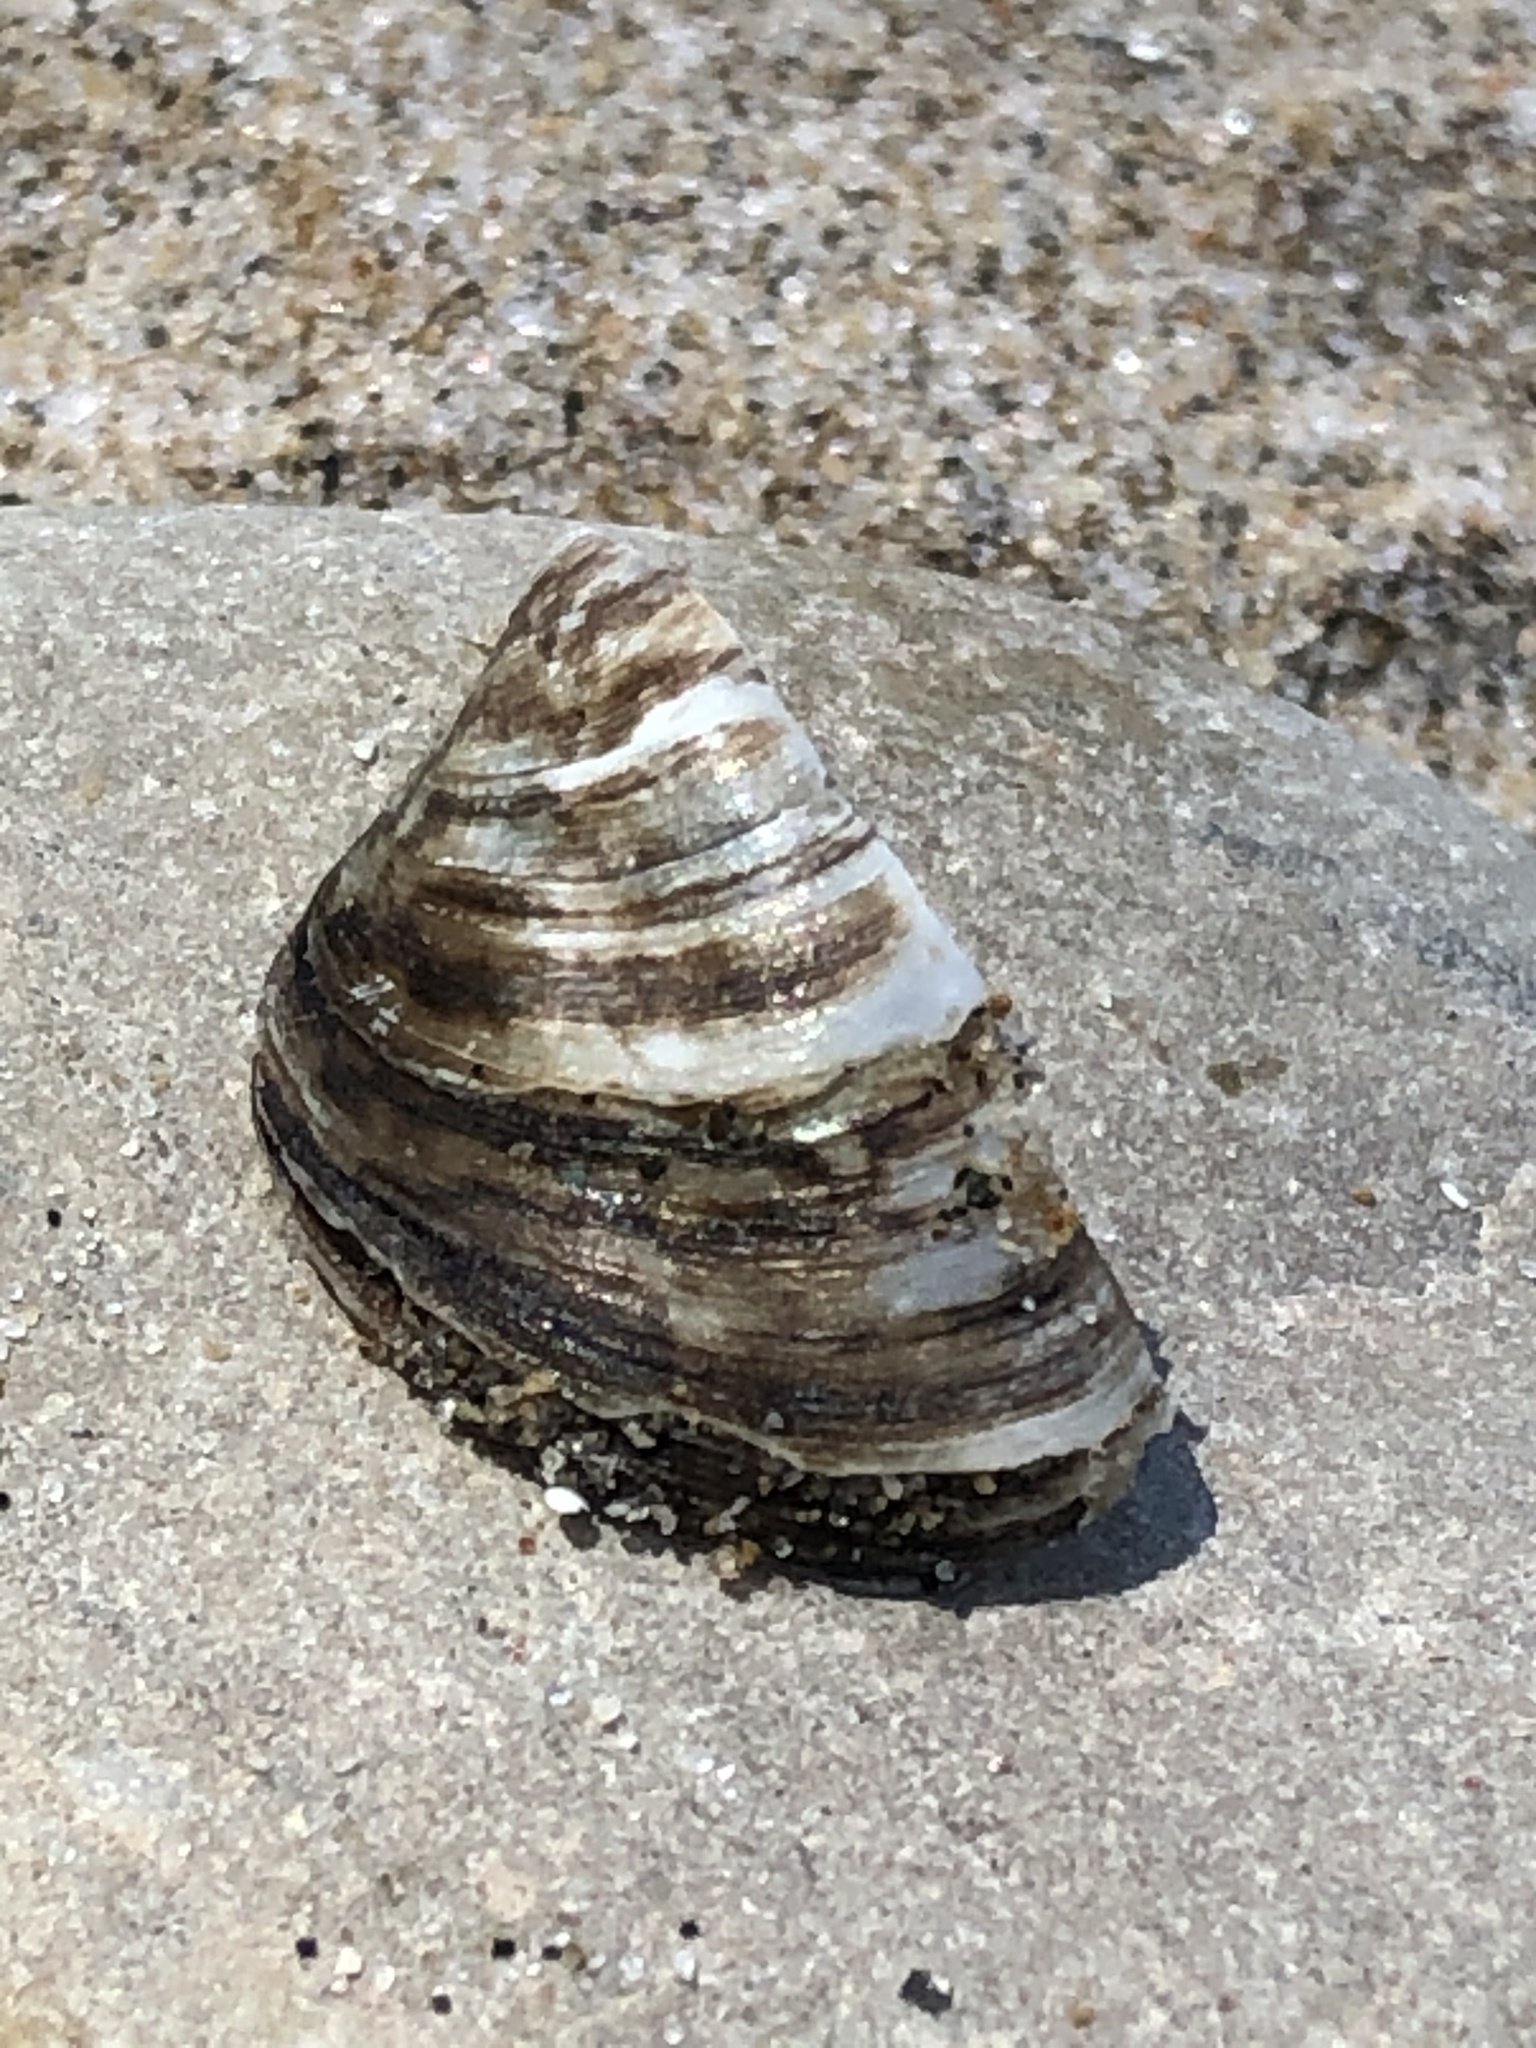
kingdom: Animalia
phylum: Mollusca
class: Bivalvia
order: Myida
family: Dreissenidae
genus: Dreissena
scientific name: Dreissena polymorpha
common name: Zebra mussel
